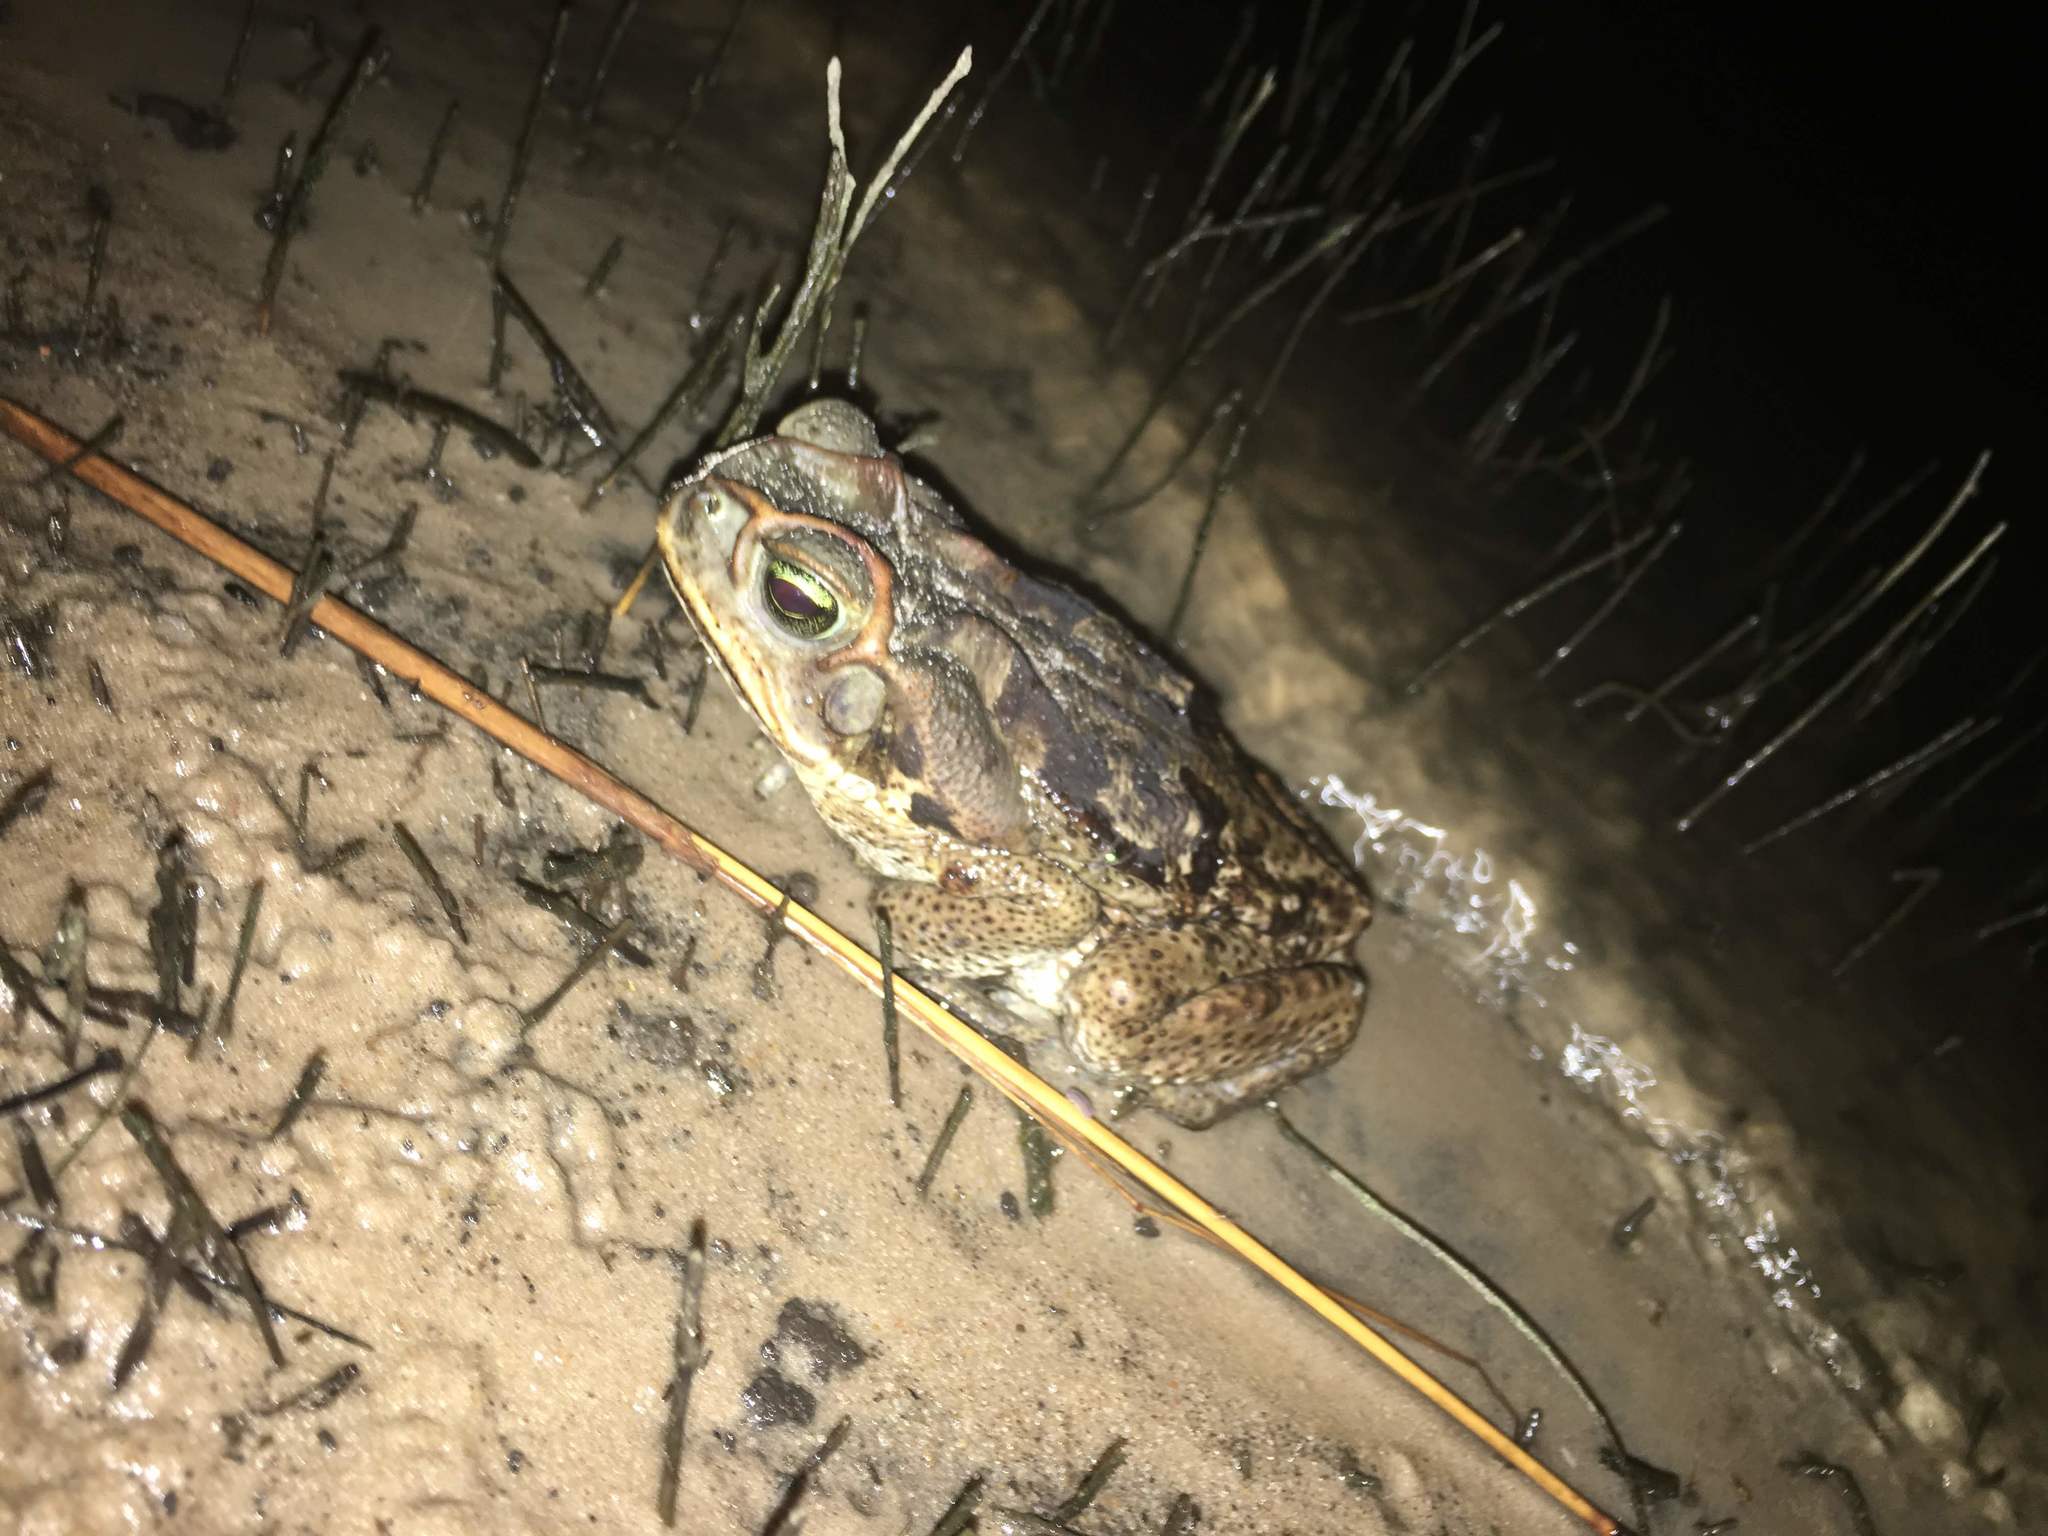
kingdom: Animalia
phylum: Chordata
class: Amphibia
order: Anura
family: Bufonidae
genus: Rhinella
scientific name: Rhinella diptycha
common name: Cope's toad
